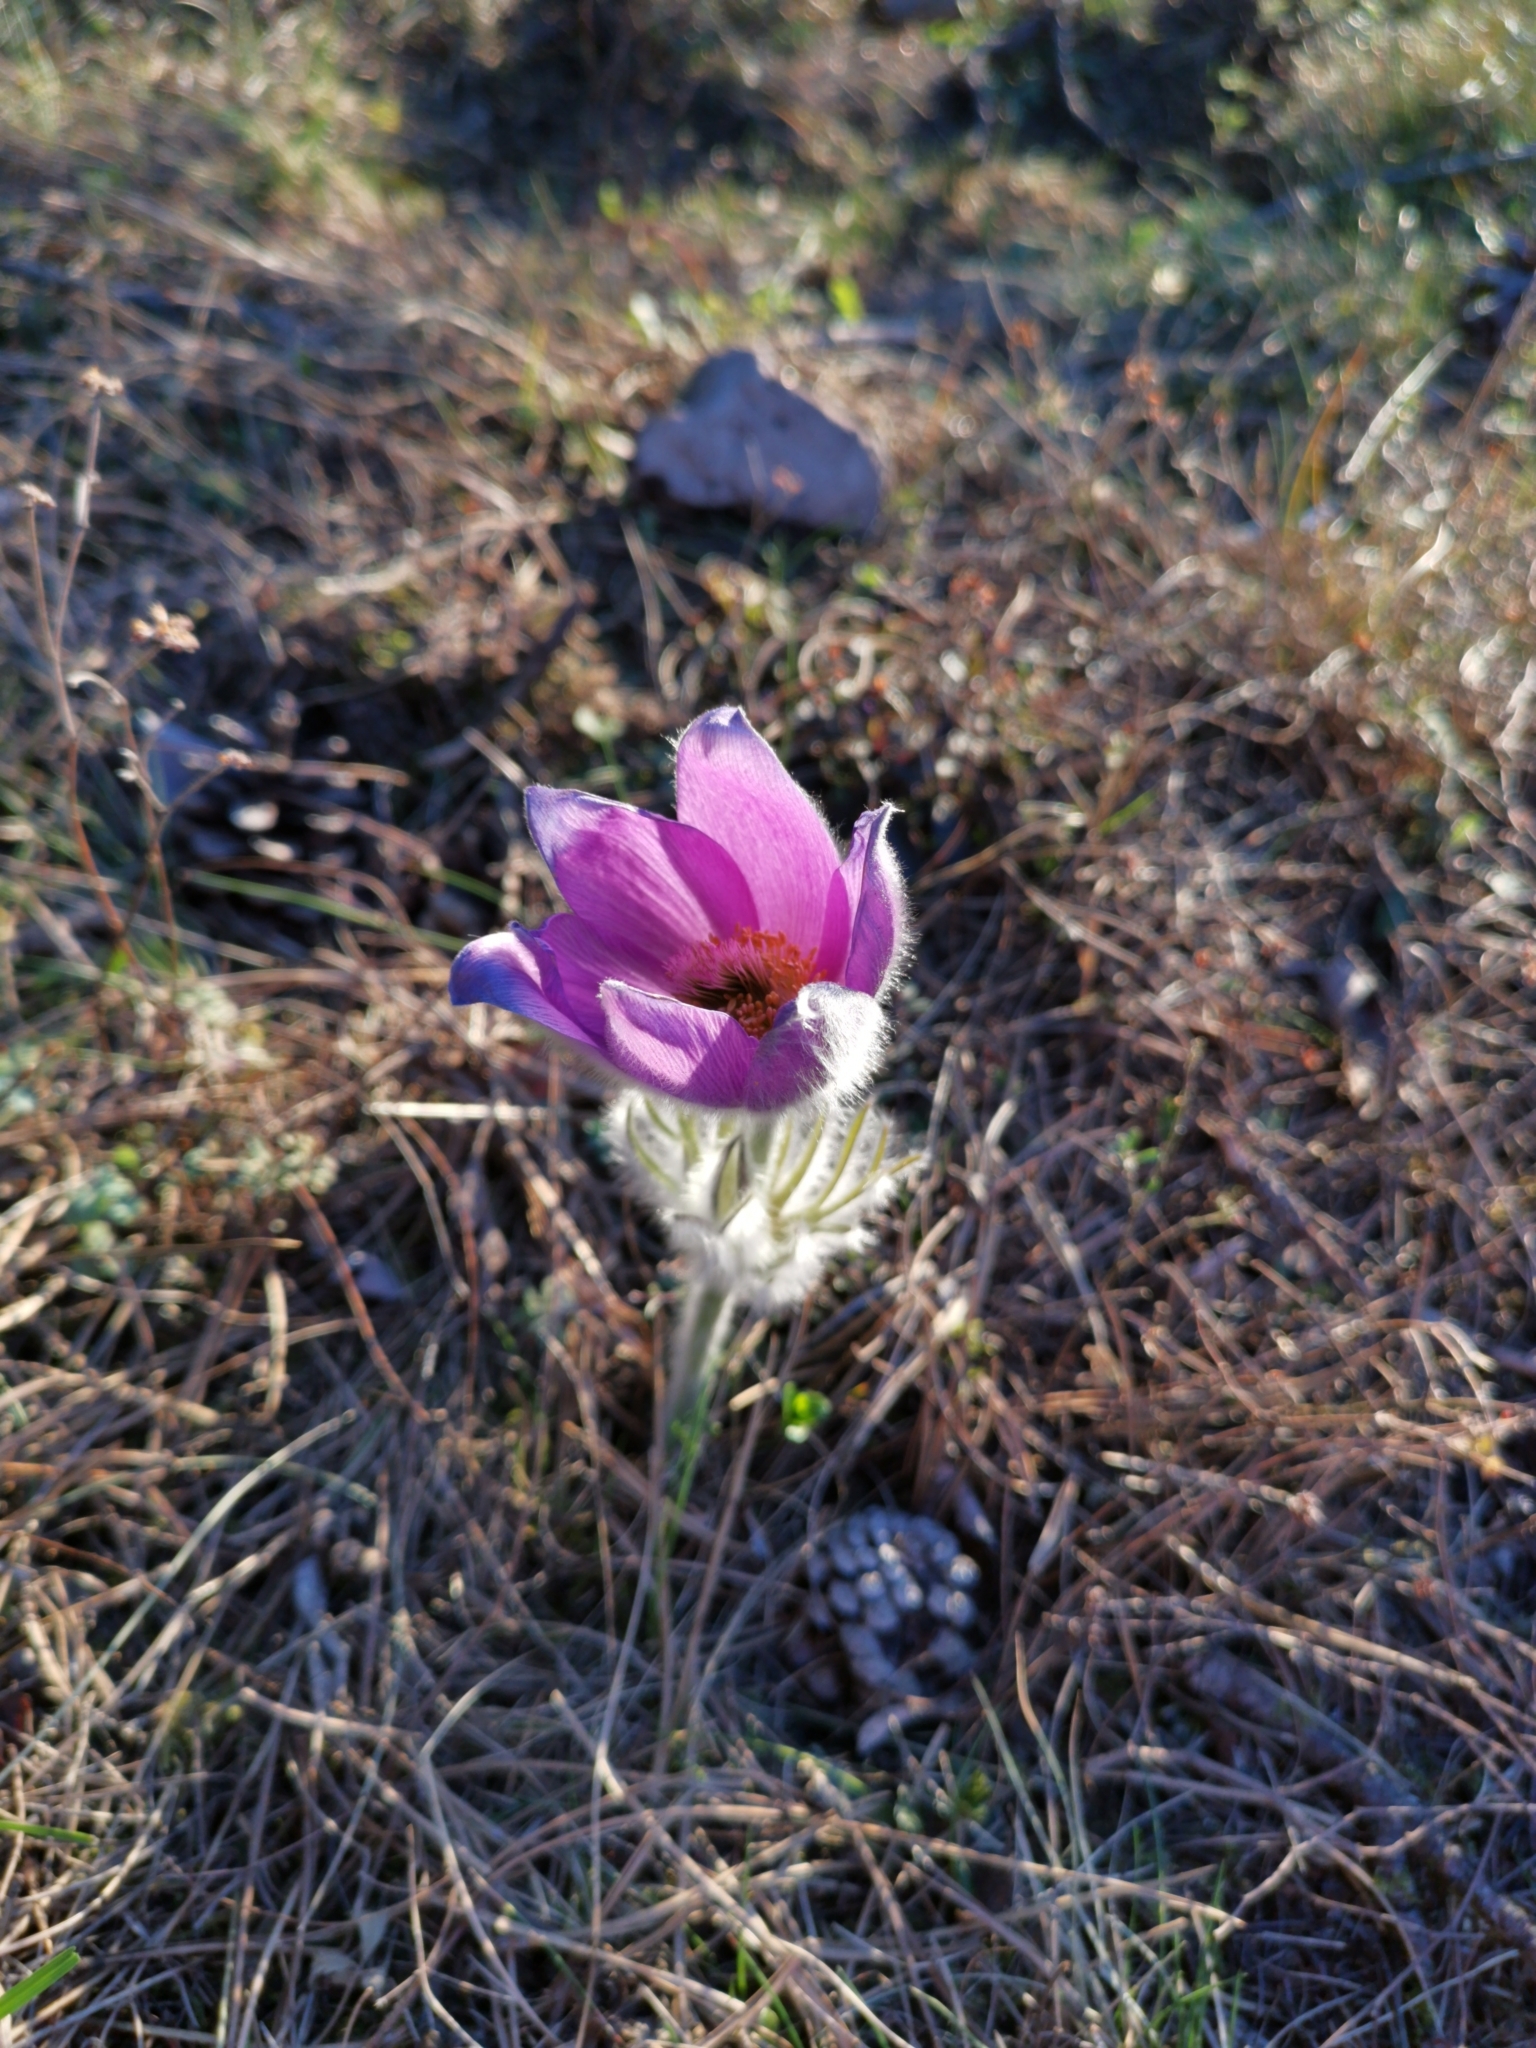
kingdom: Plantae
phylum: Tracheophyta
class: Magnoliopsida
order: Ranunculales
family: Ranunculaceae
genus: Pulsatilla
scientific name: Pulsatilla grandis
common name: Greater pasque flower
